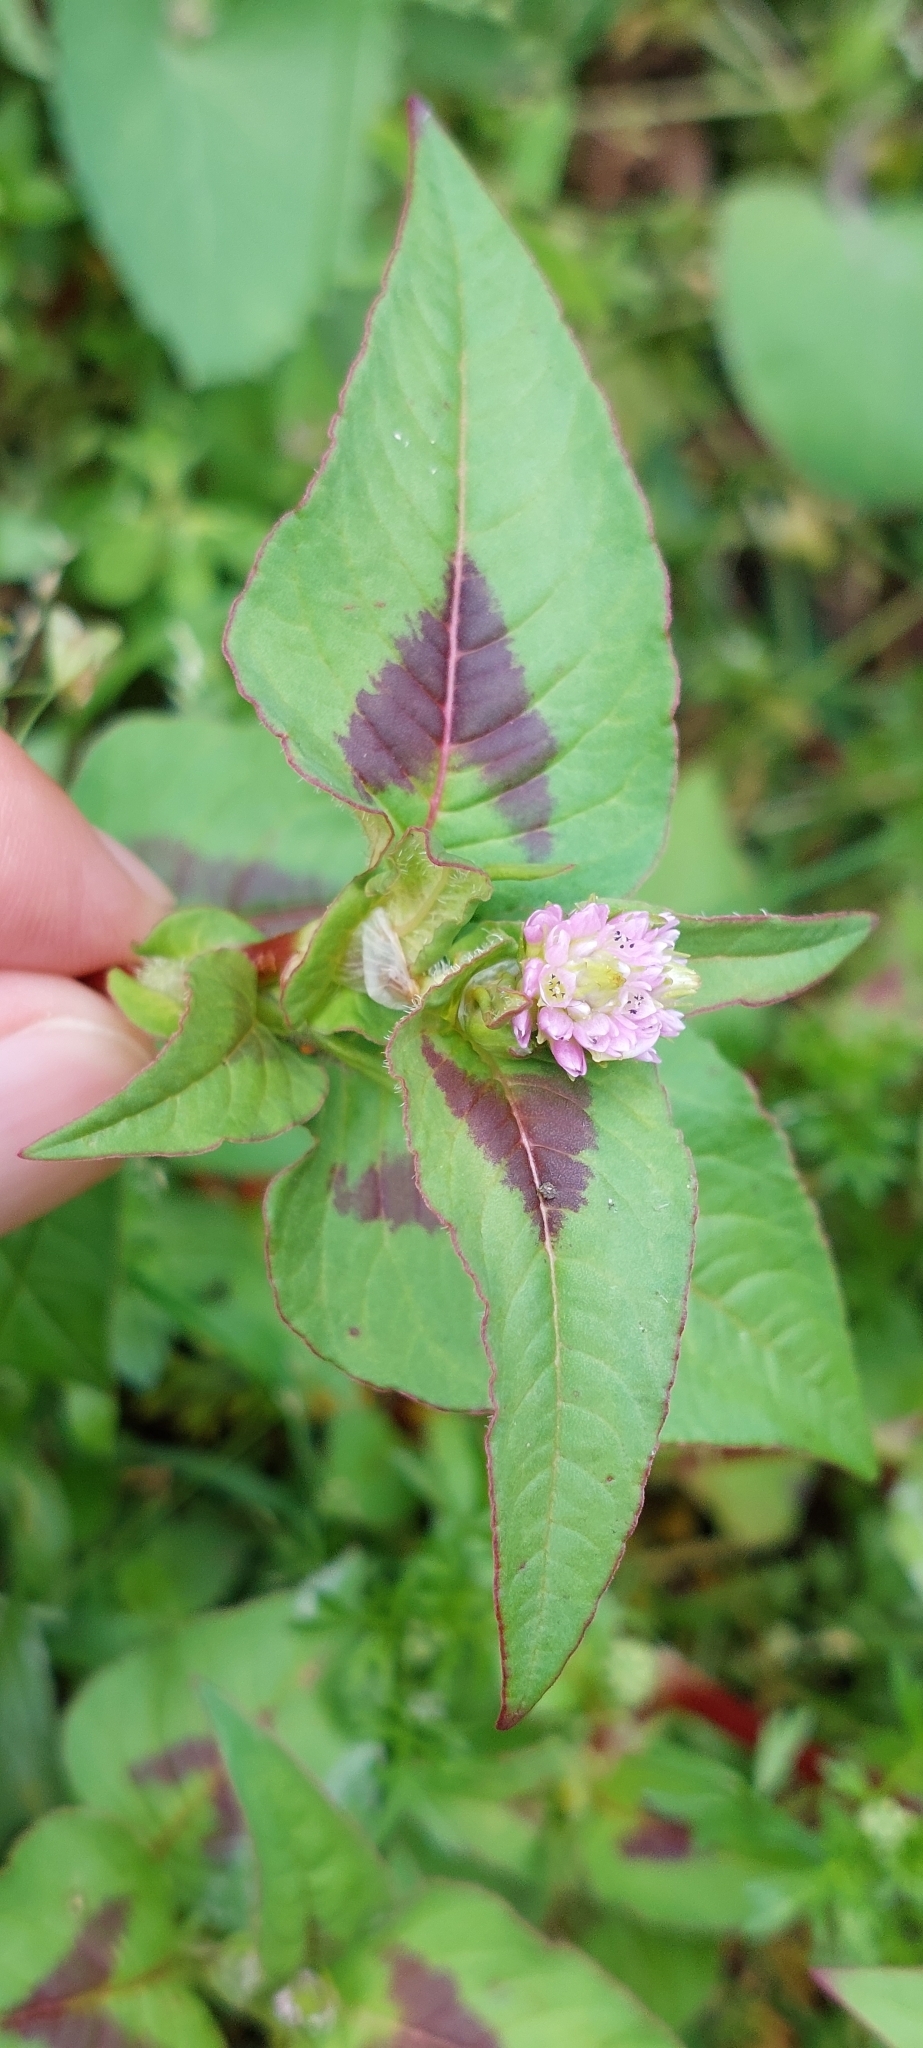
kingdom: Plantae
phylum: Tracheophyta
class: Magnoliopsida
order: Caryophyllales
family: Polygonaceae
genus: Persicaria
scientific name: Persicaria nepalensis
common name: Nepal persicaria
